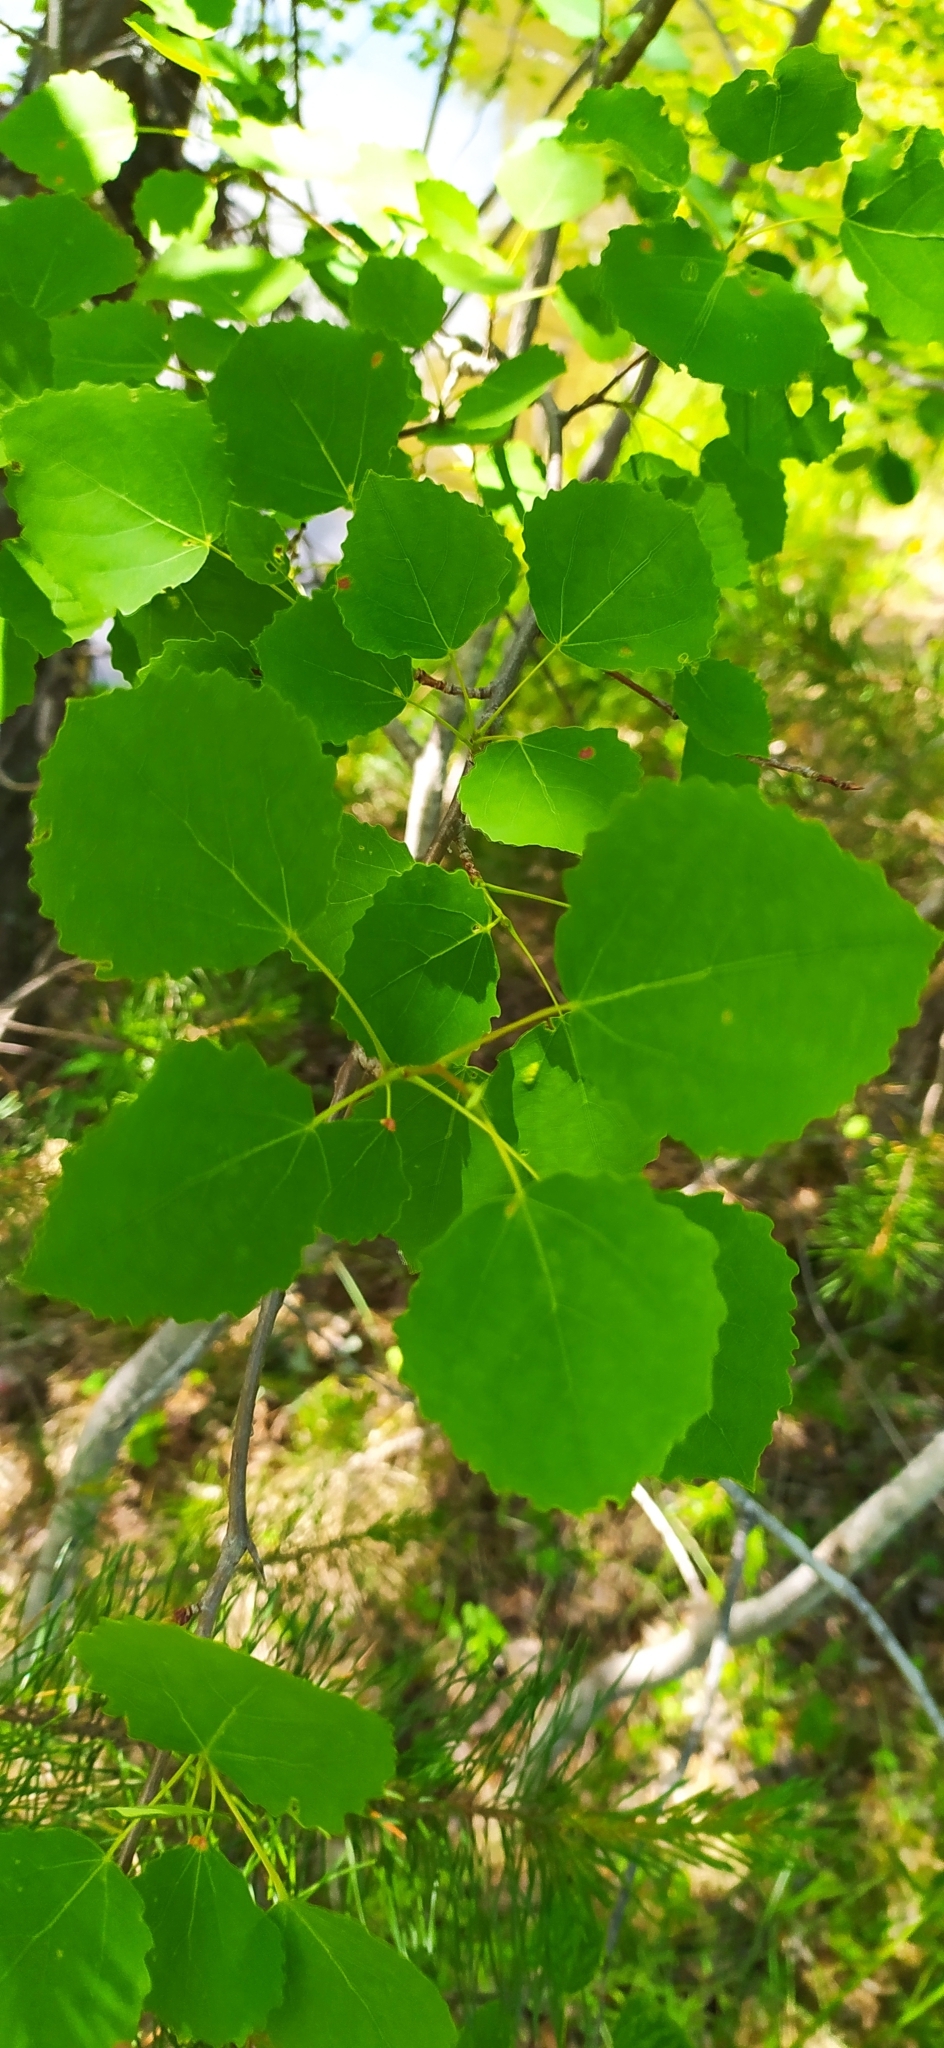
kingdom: Plantae
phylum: Tracheophyta
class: Magnoliopsida
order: Malpighiales
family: Salicaceae
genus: Populus
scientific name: Populus tremula
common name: European aspen
